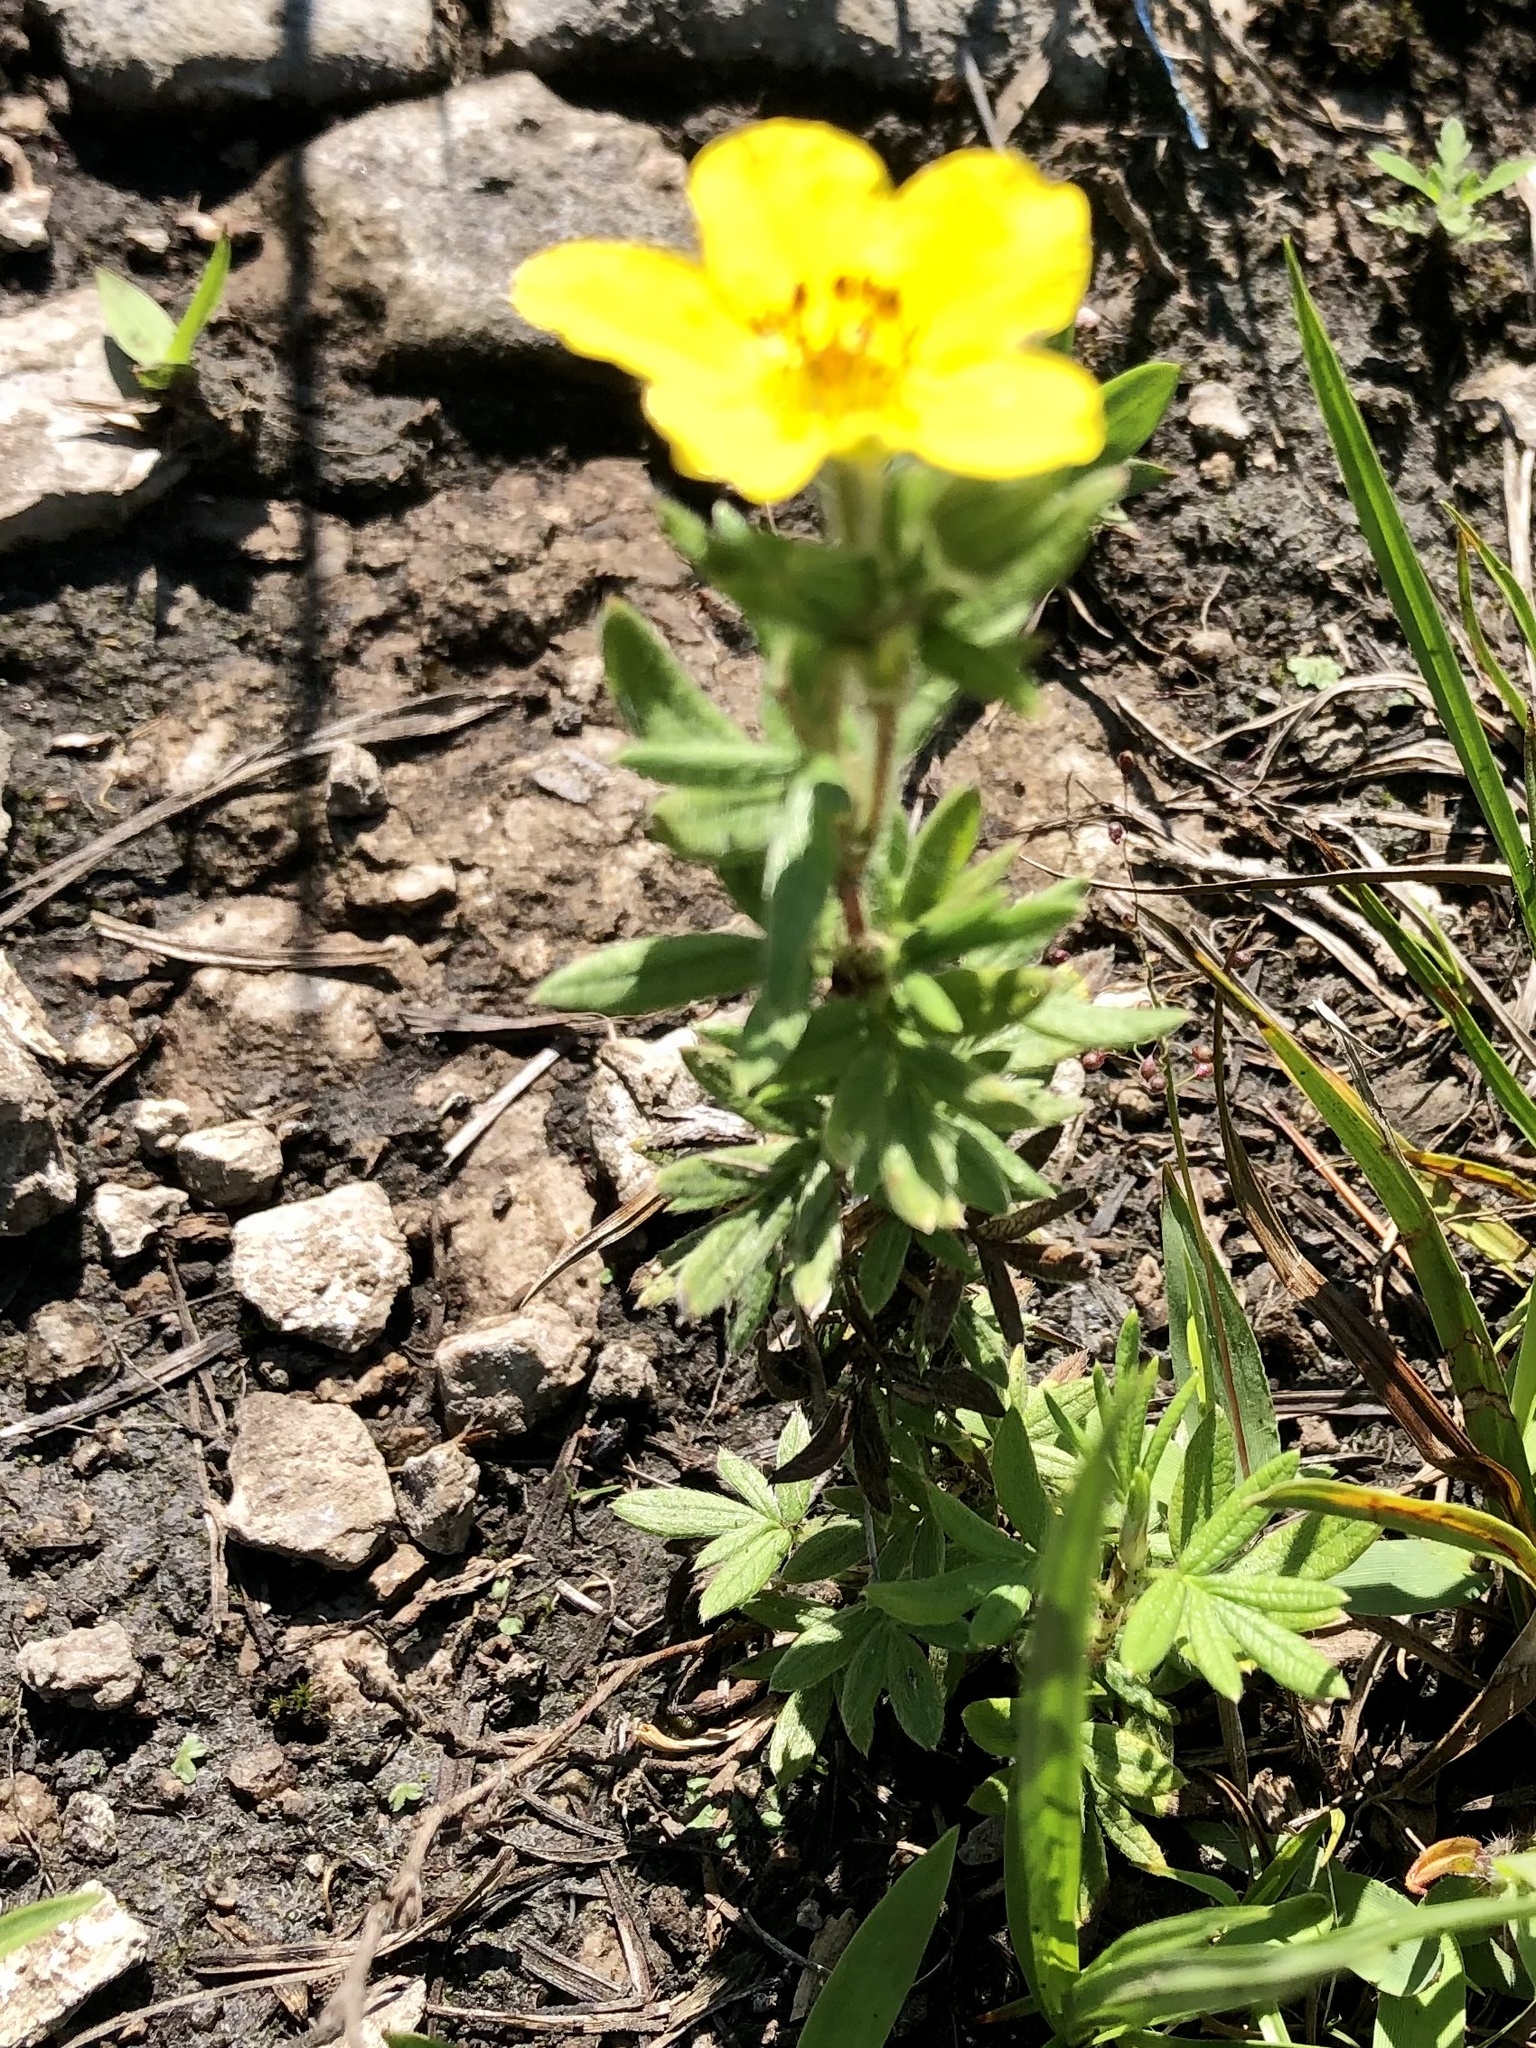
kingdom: Plantae
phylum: Tracheophyta
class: Magnoliopsida
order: Rosales
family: Rosaceae
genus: Dasiphora
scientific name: Dasiphora fruticosa
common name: Shrubby cinquefoil
